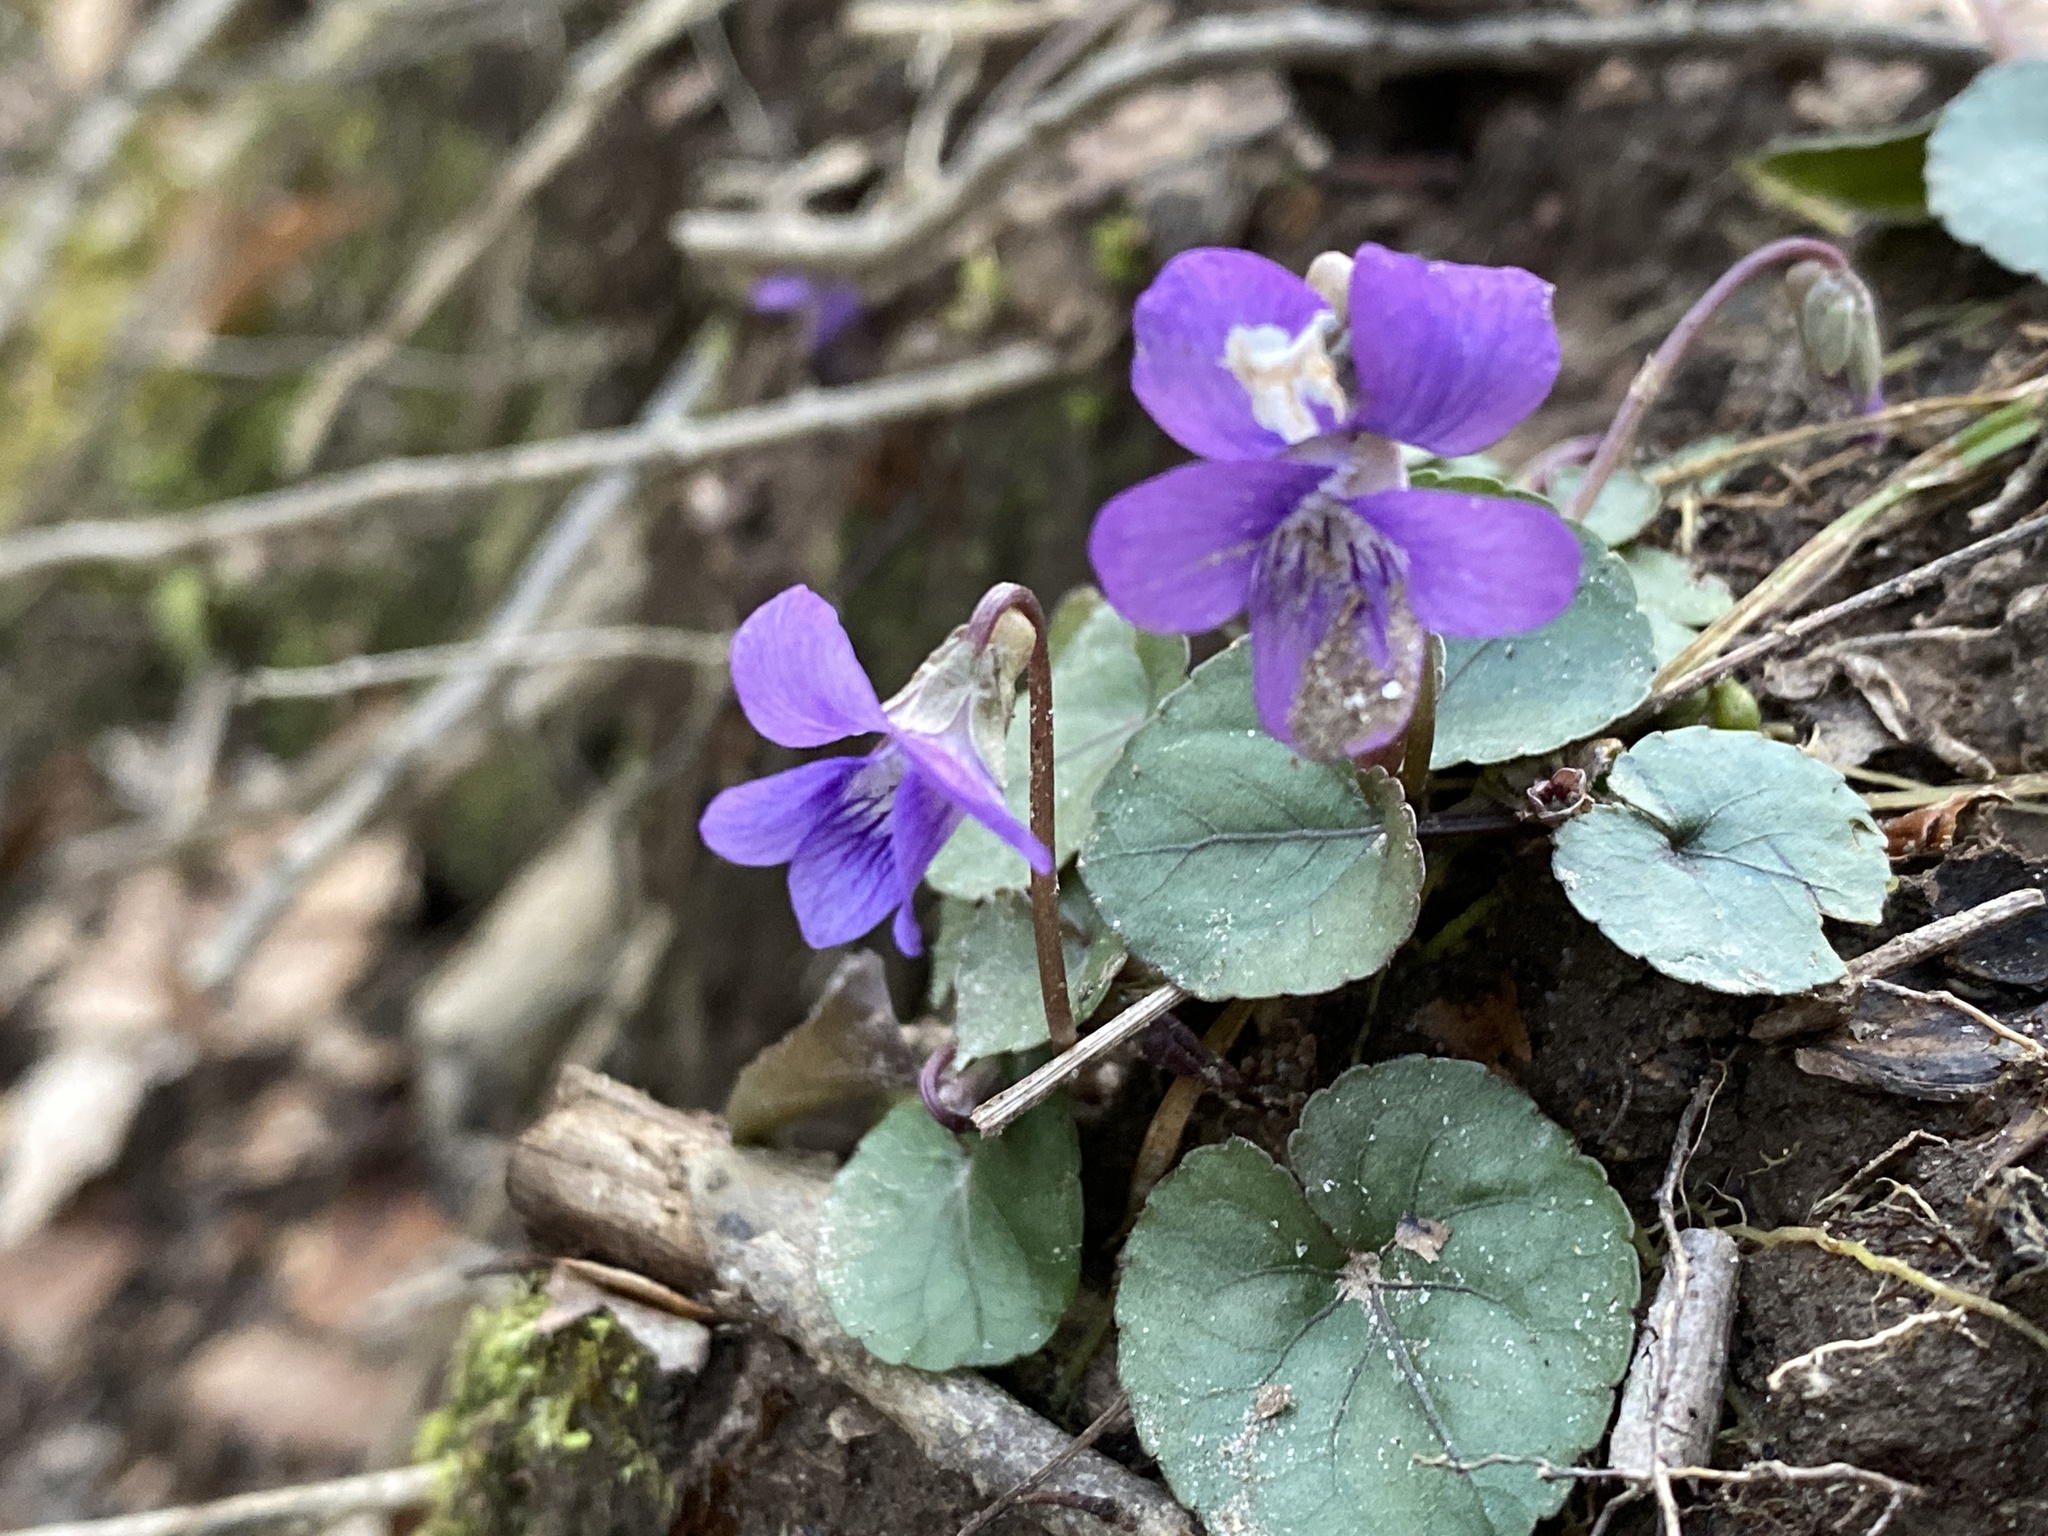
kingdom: Plantae
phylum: Tracheophyta
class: Magnoliopsida
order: Malpighiales
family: Violaceae
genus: Viola
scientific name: Viola sororia
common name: Dooryard violet
